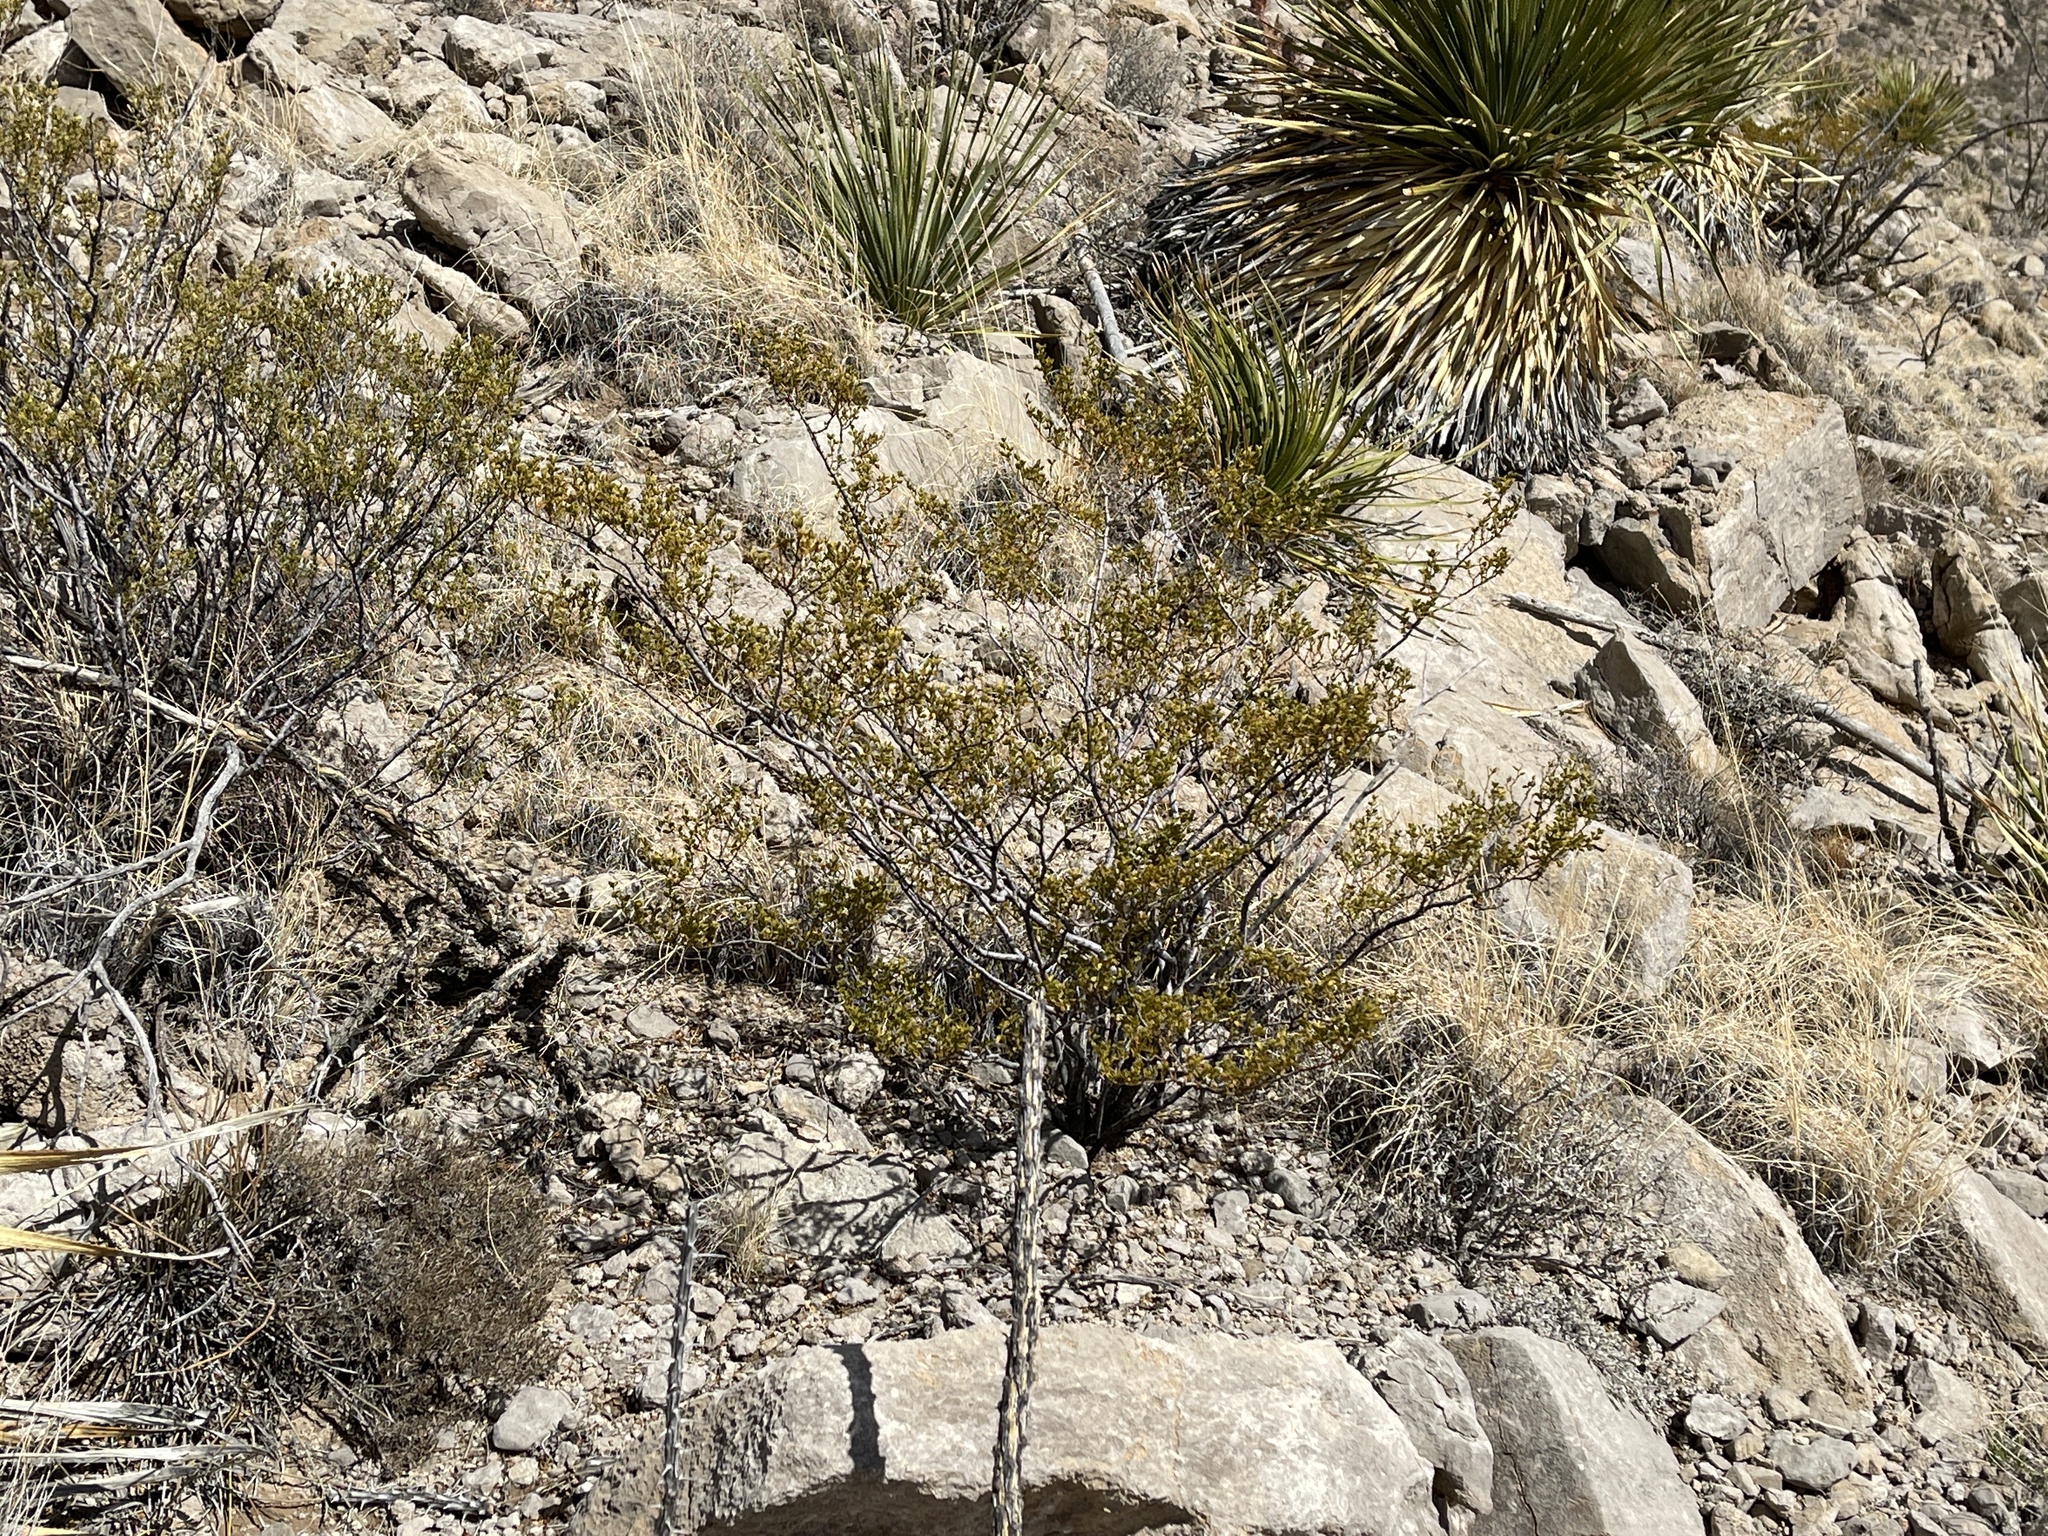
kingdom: Plantae
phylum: Tracheophyta
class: Magnoliopsida
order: Zygophyllales
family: Zygophyllaceae
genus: Larrea
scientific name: Larrea tridentata
